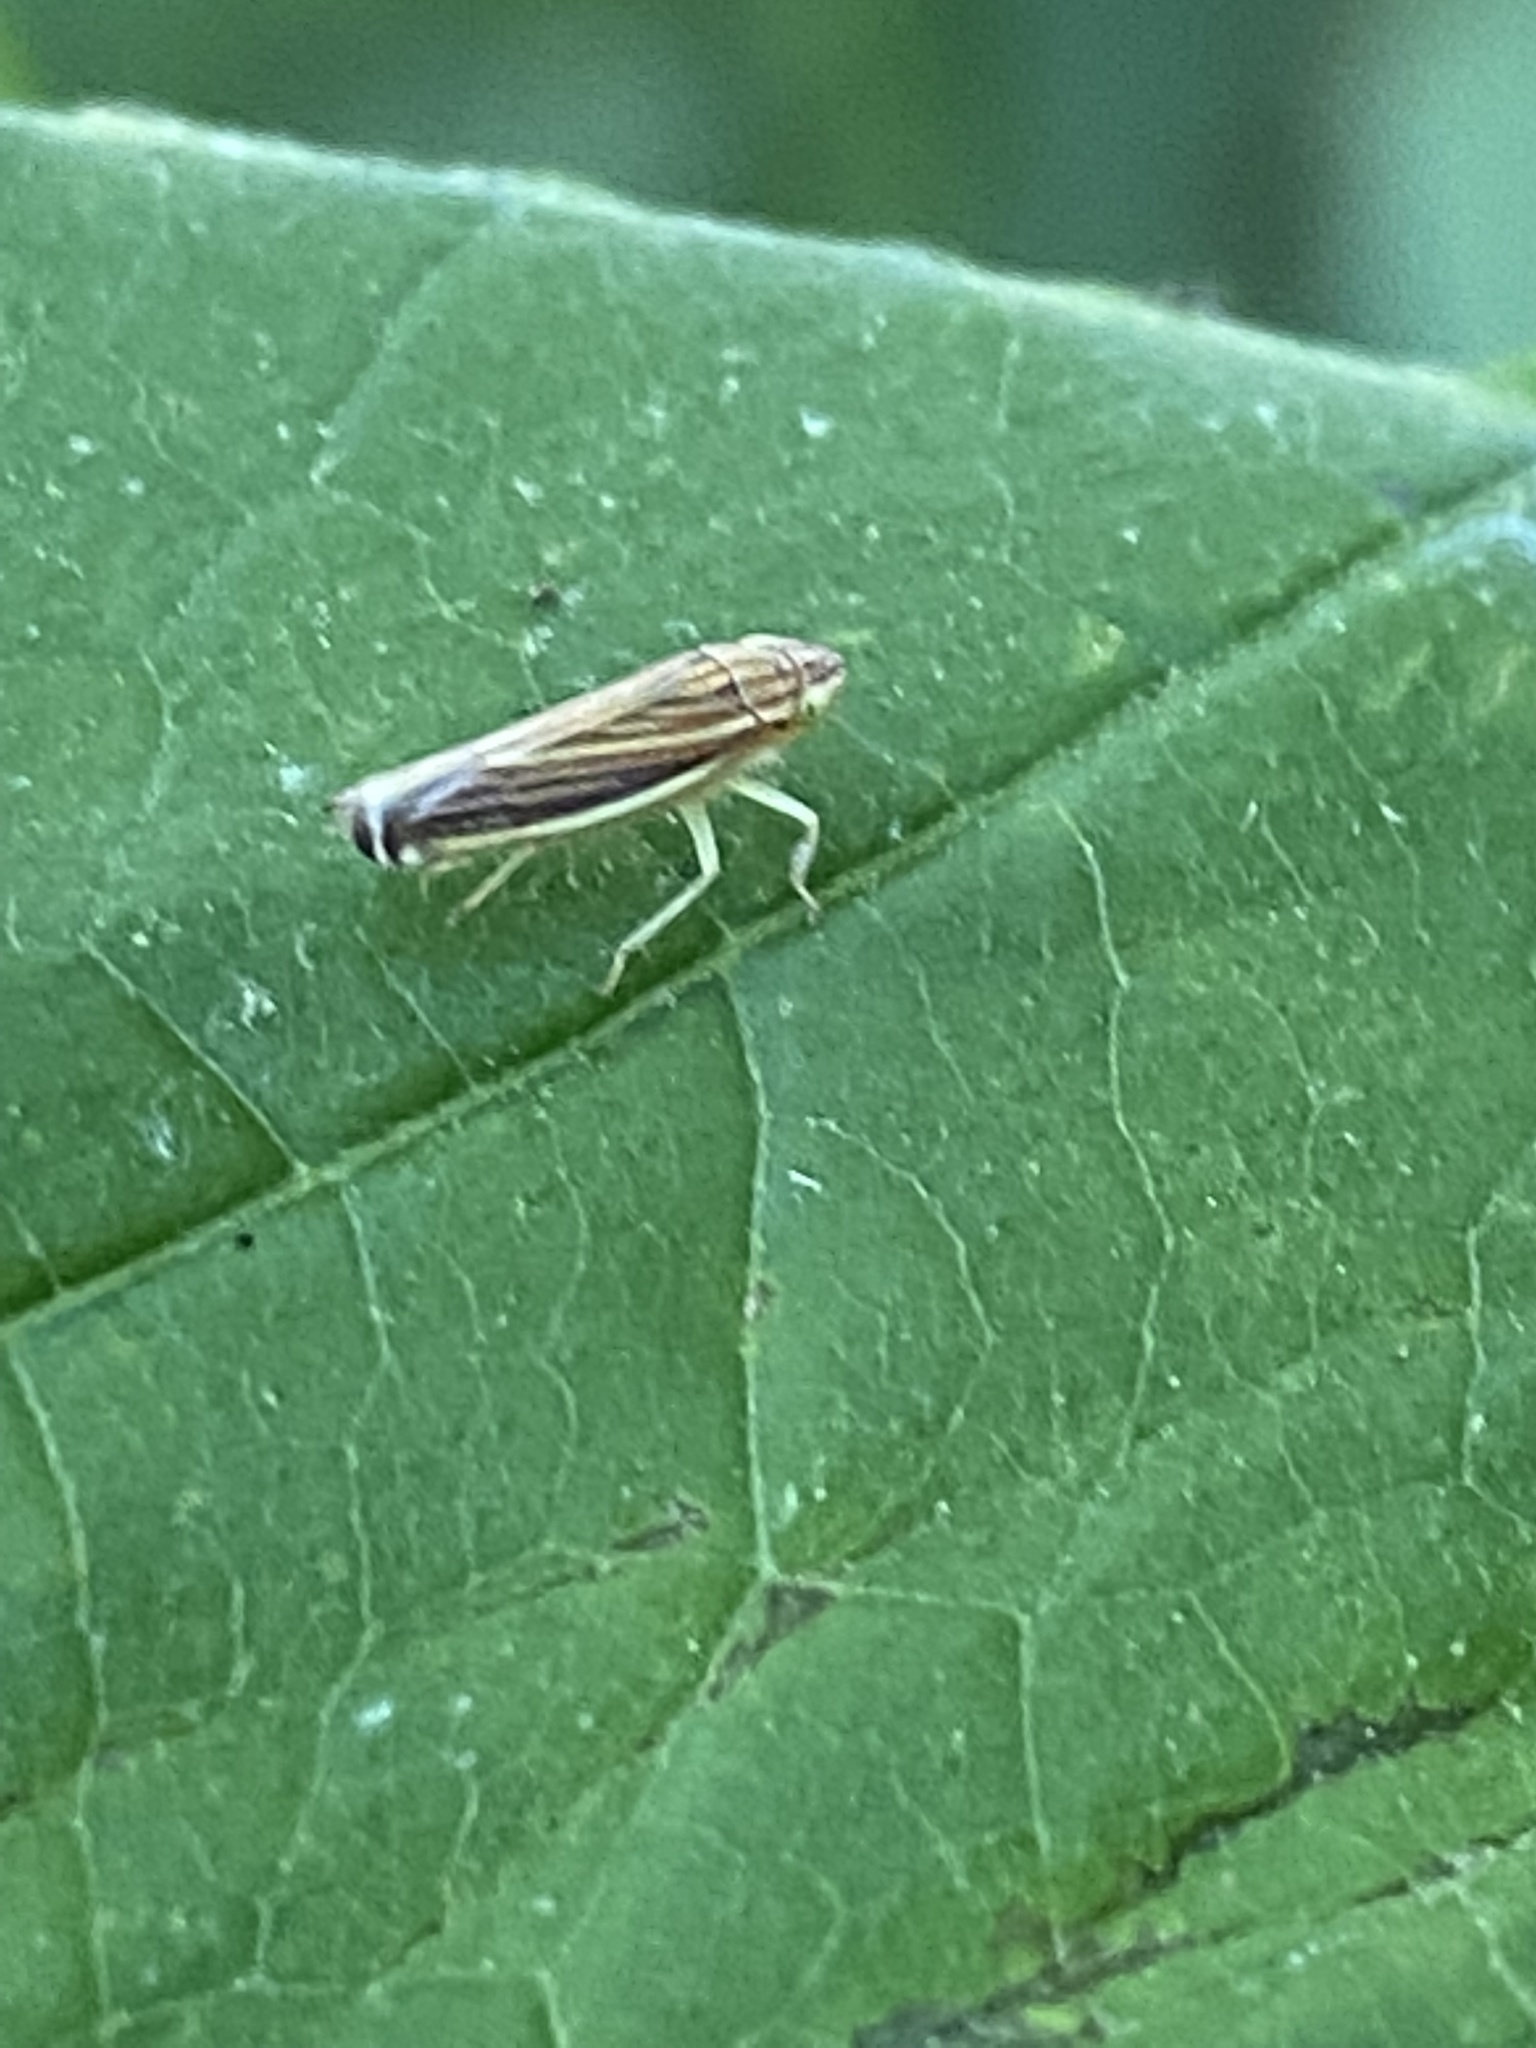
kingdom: Animalia
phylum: Arthropoda
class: Insecta
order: Hemiptera
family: Cicadellidae
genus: Sibovia
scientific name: Sibovia occatoria
